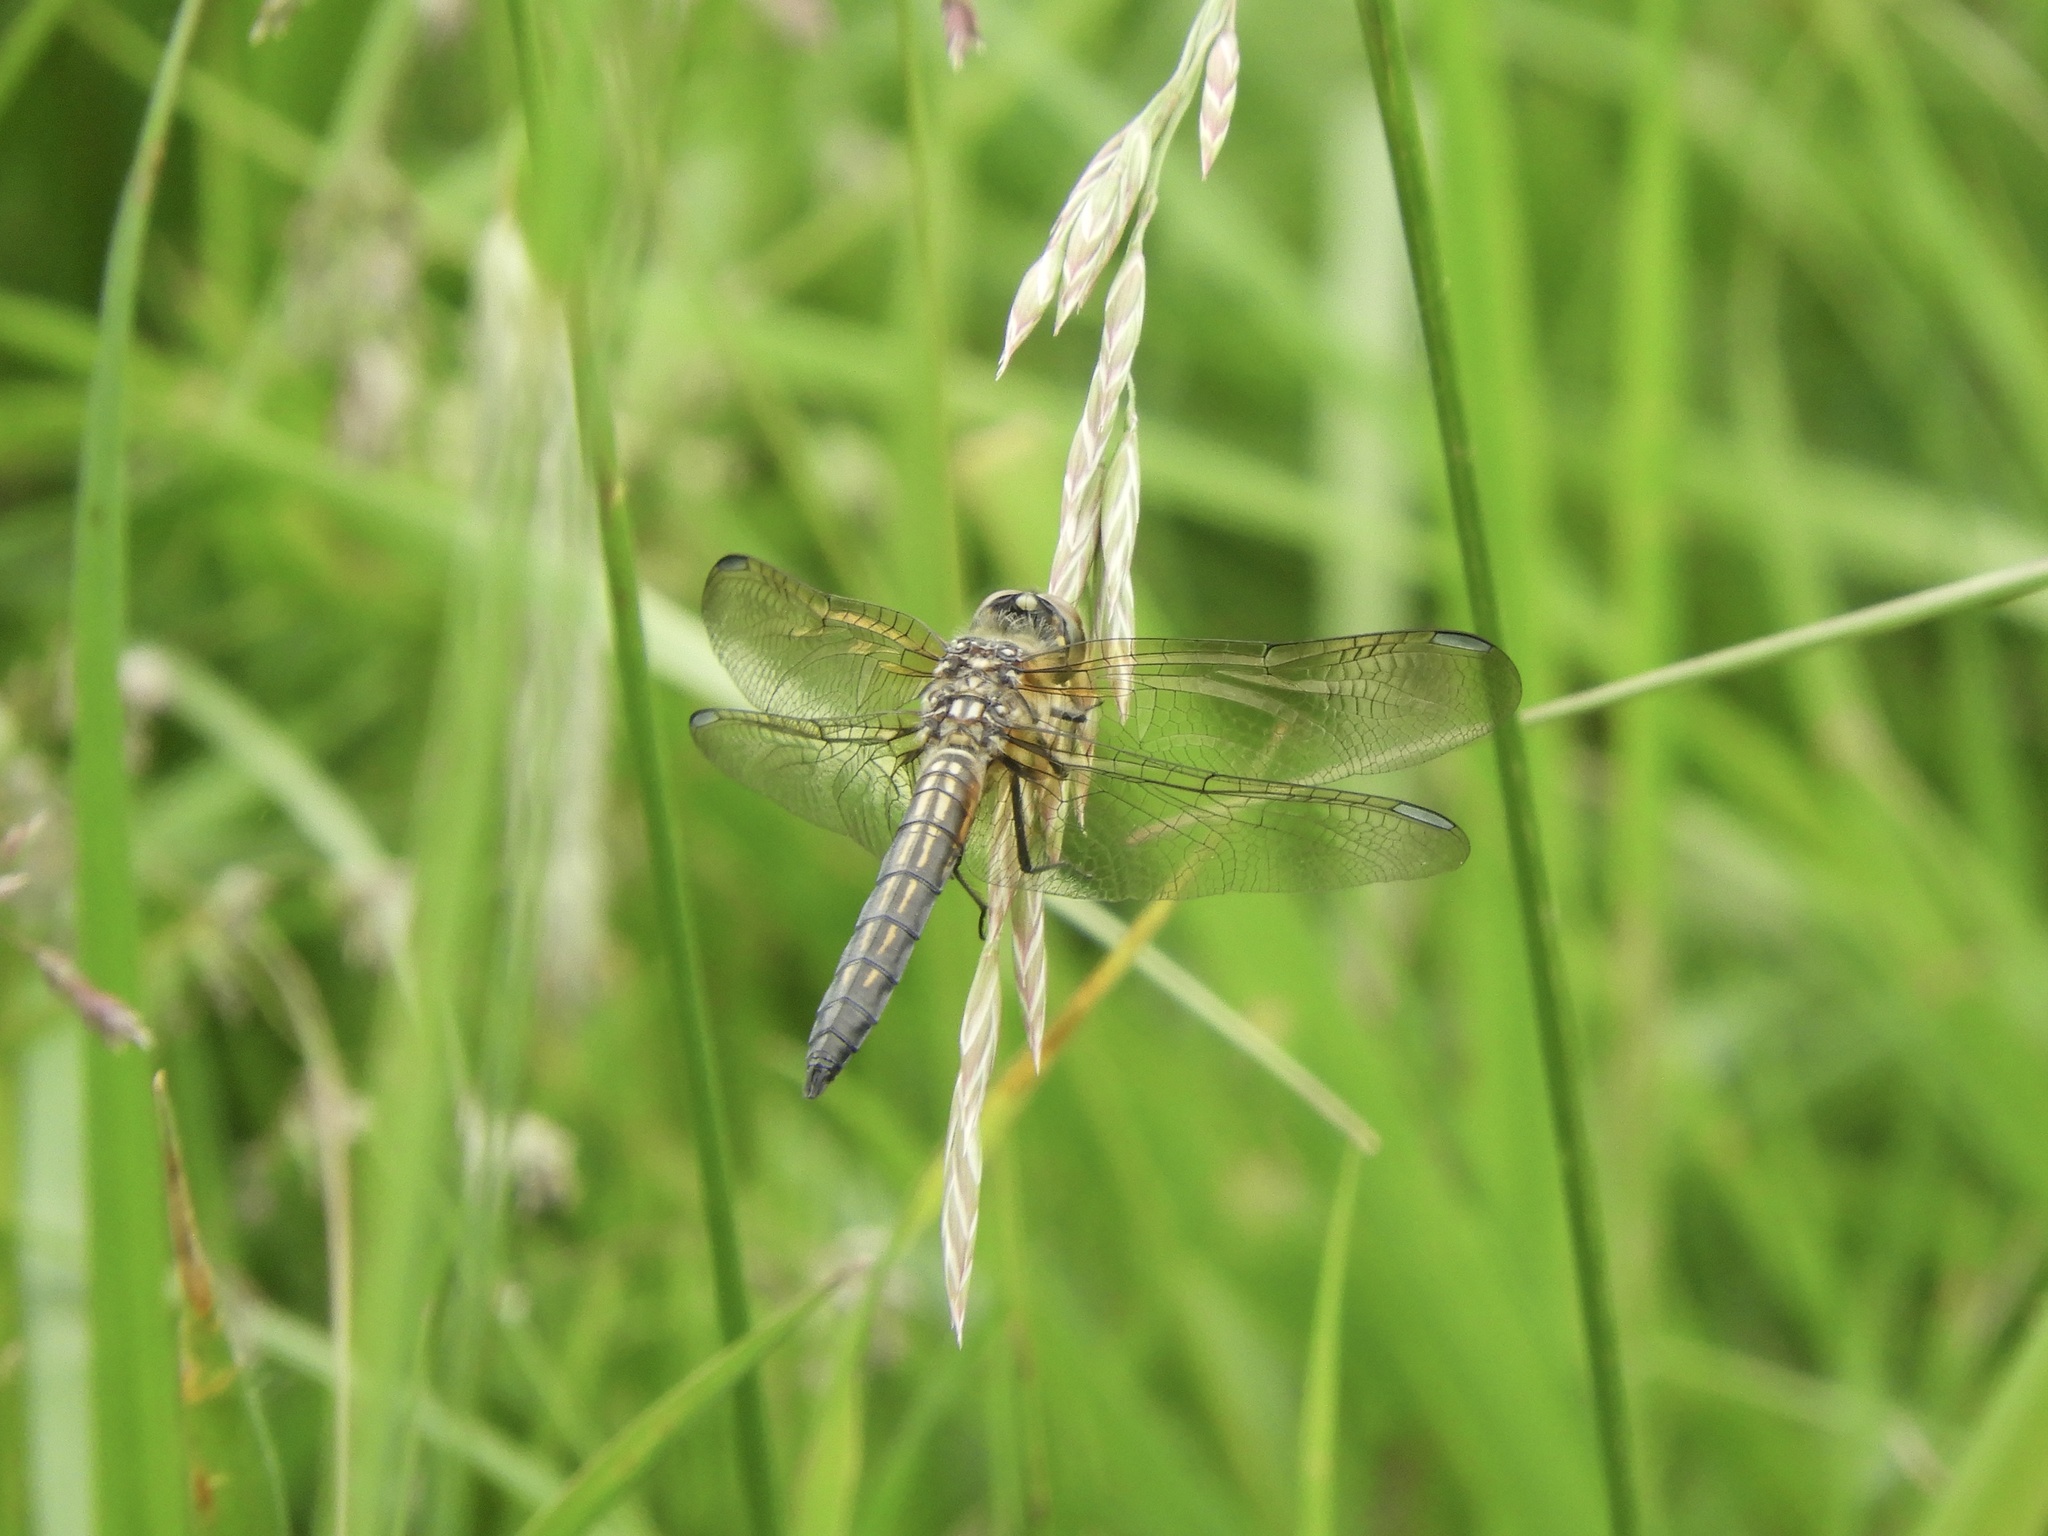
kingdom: Animalia
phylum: Arthropoda
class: Insecta
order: Odonata
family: Libellulidae
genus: Pachydiplax
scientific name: Pachydiplax longipennis
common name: Blue dasher
